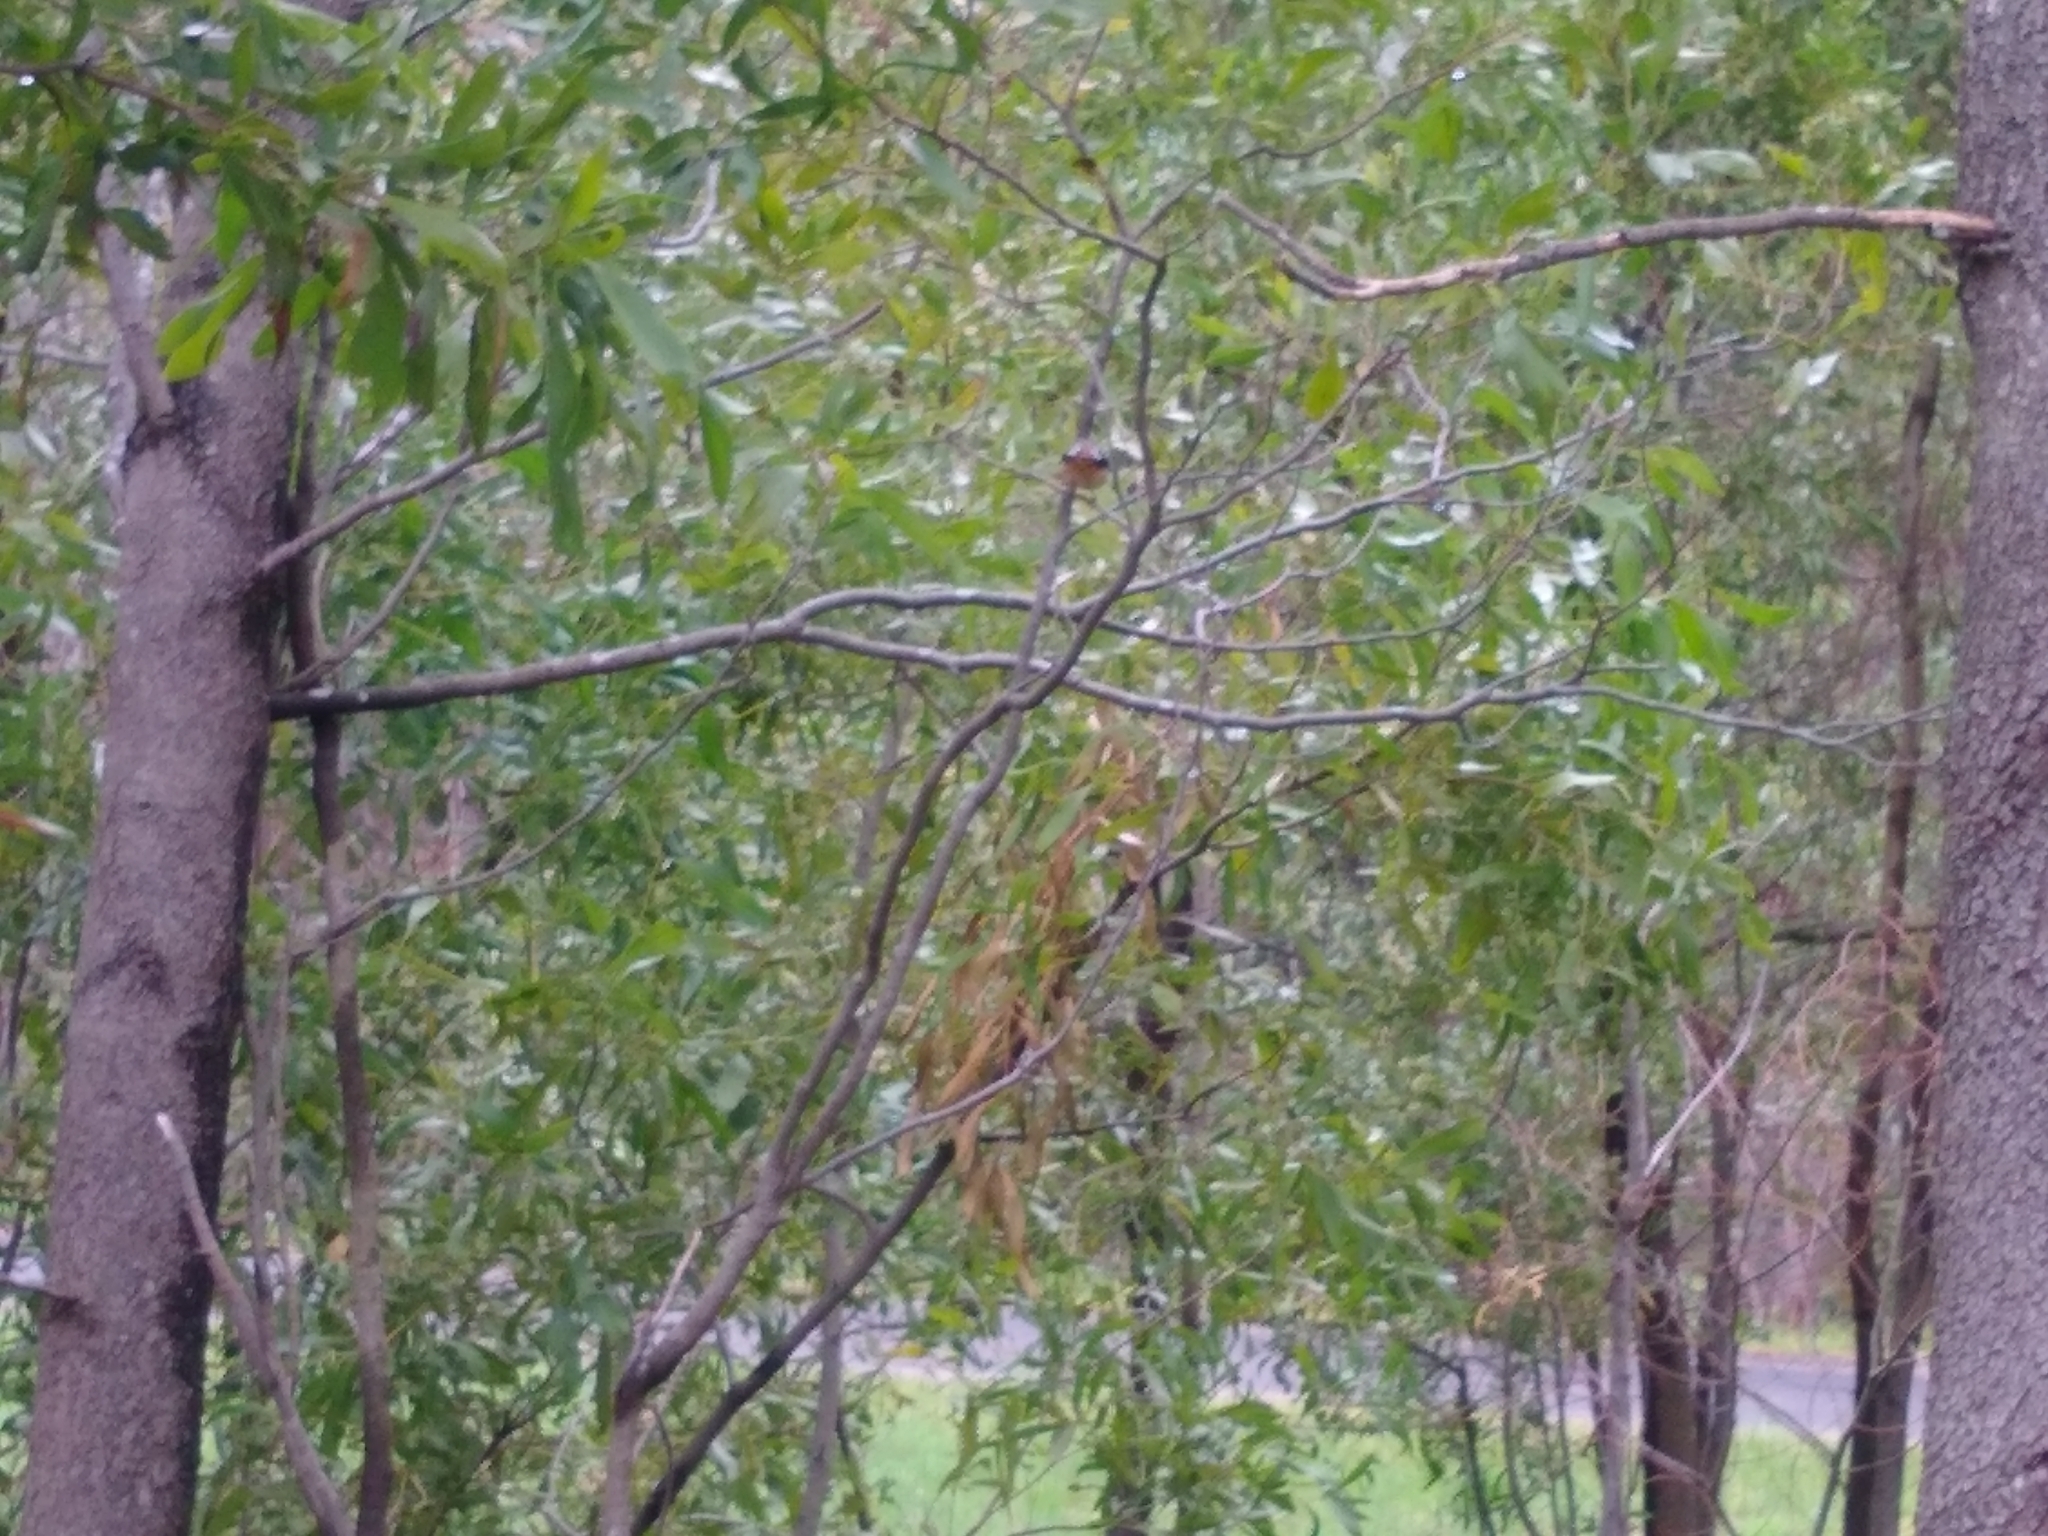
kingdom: Animalia
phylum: Chordata
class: Aves
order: Passeriformes
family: Pardalotidae
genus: Pardalotus
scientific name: Pardalotus punctatus
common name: Spotted pardalote
